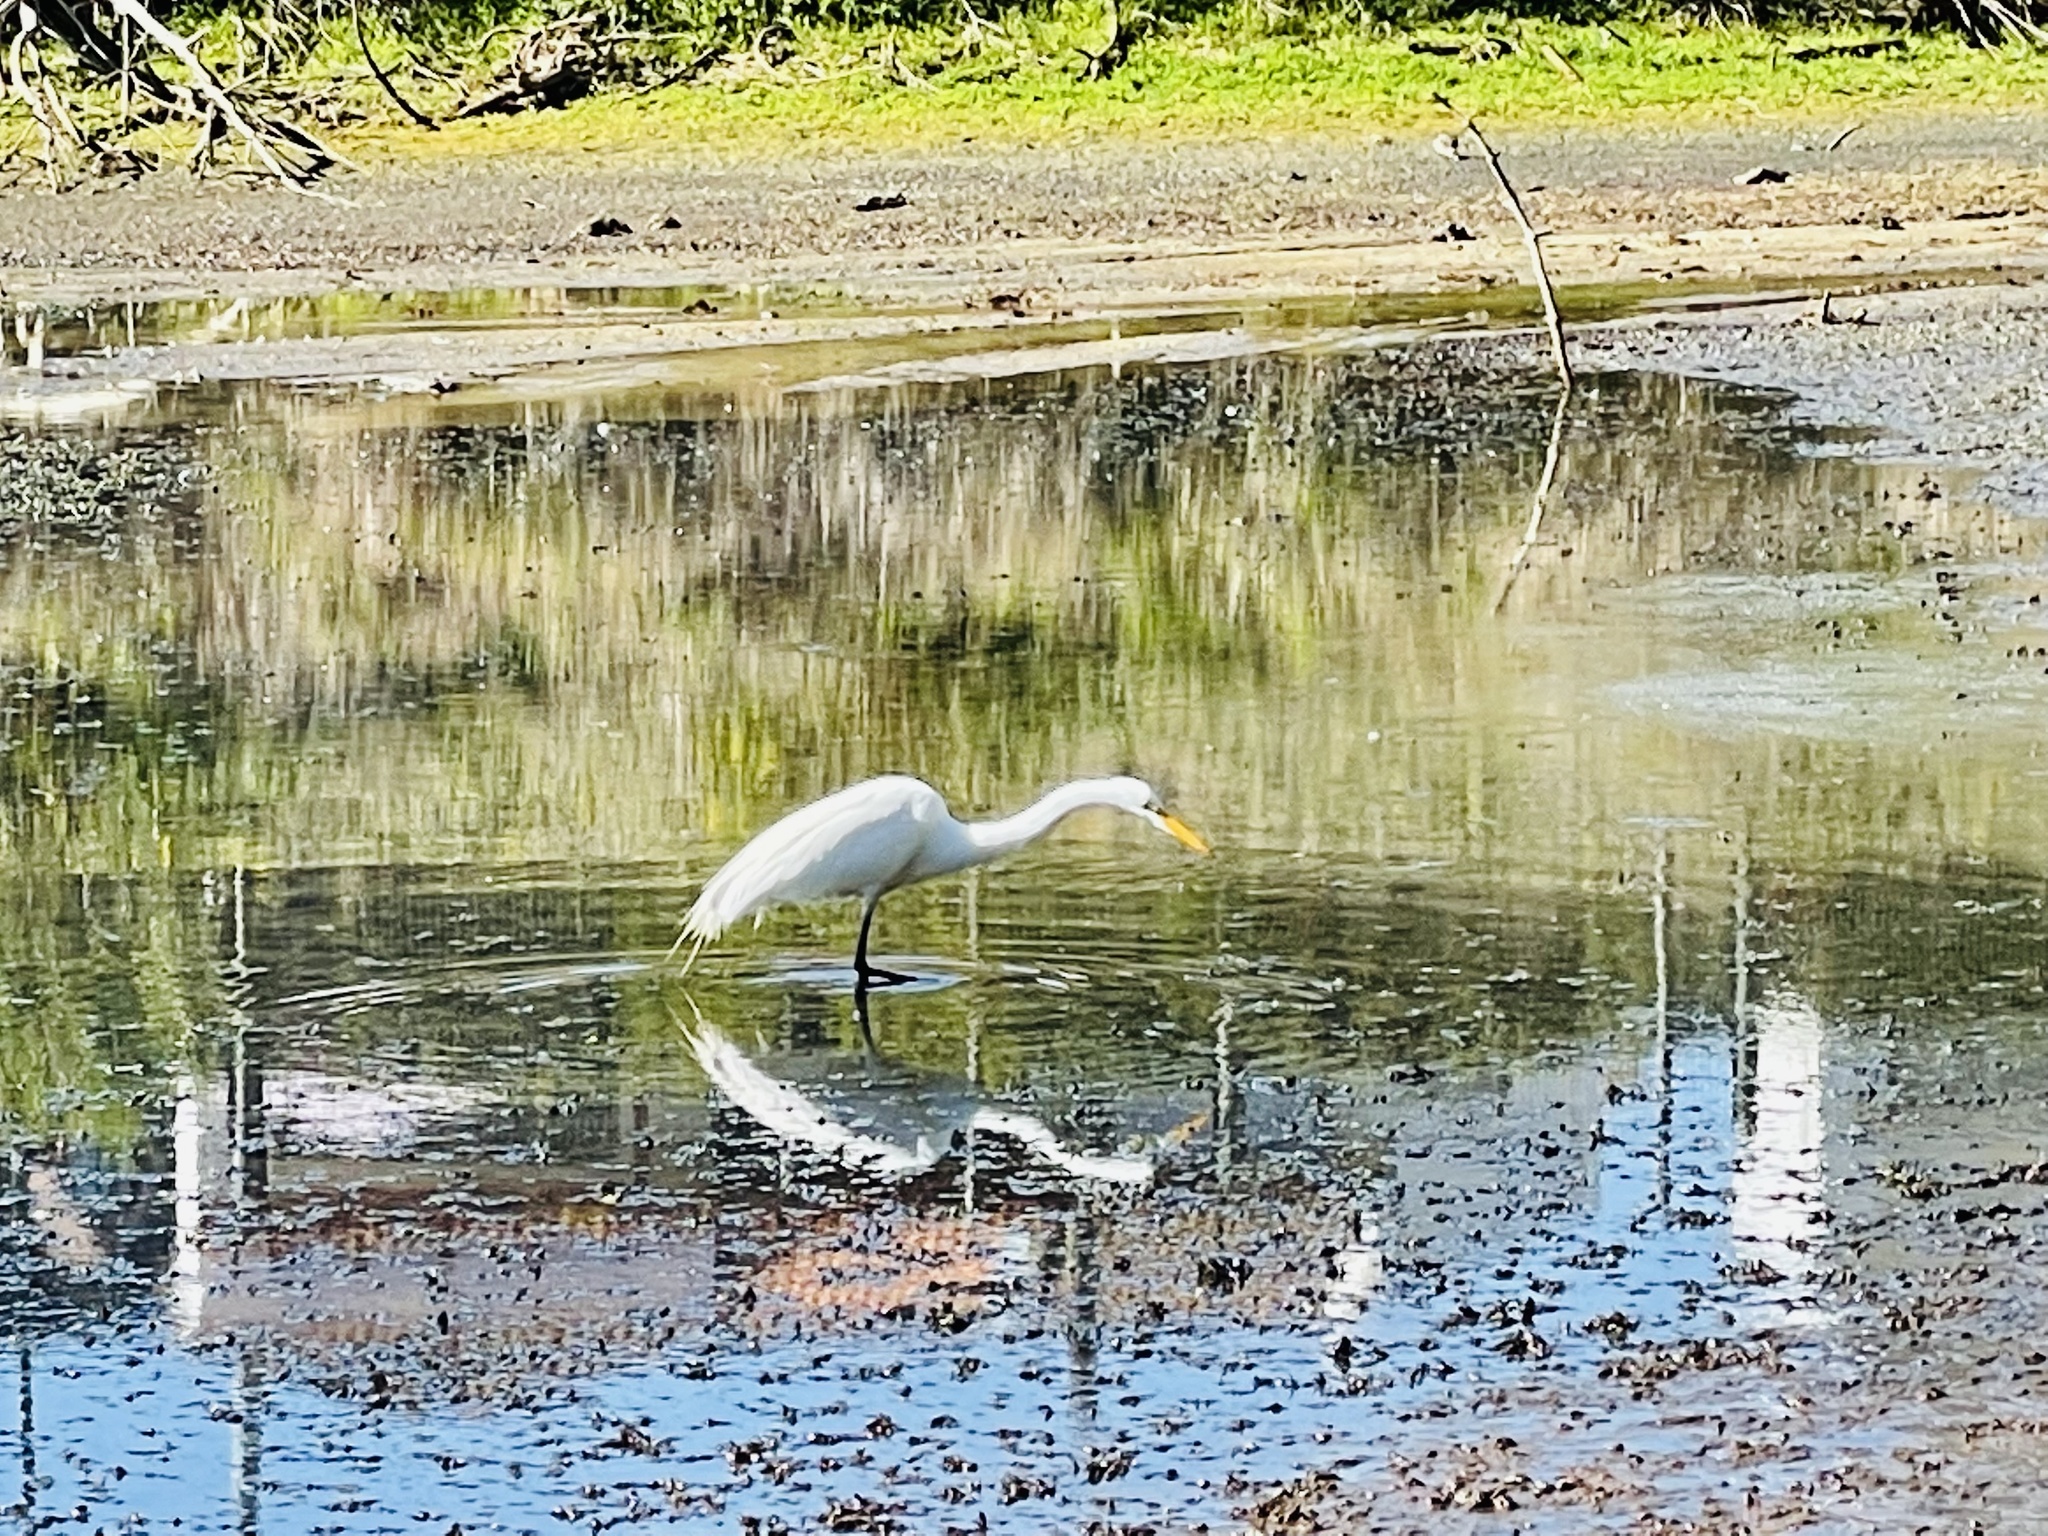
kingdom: Animalia
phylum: Chordata
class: Aves
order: Pelecaniformes
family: Ardeidae
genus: Ardea
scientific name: Ardea alba
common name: Great egret
